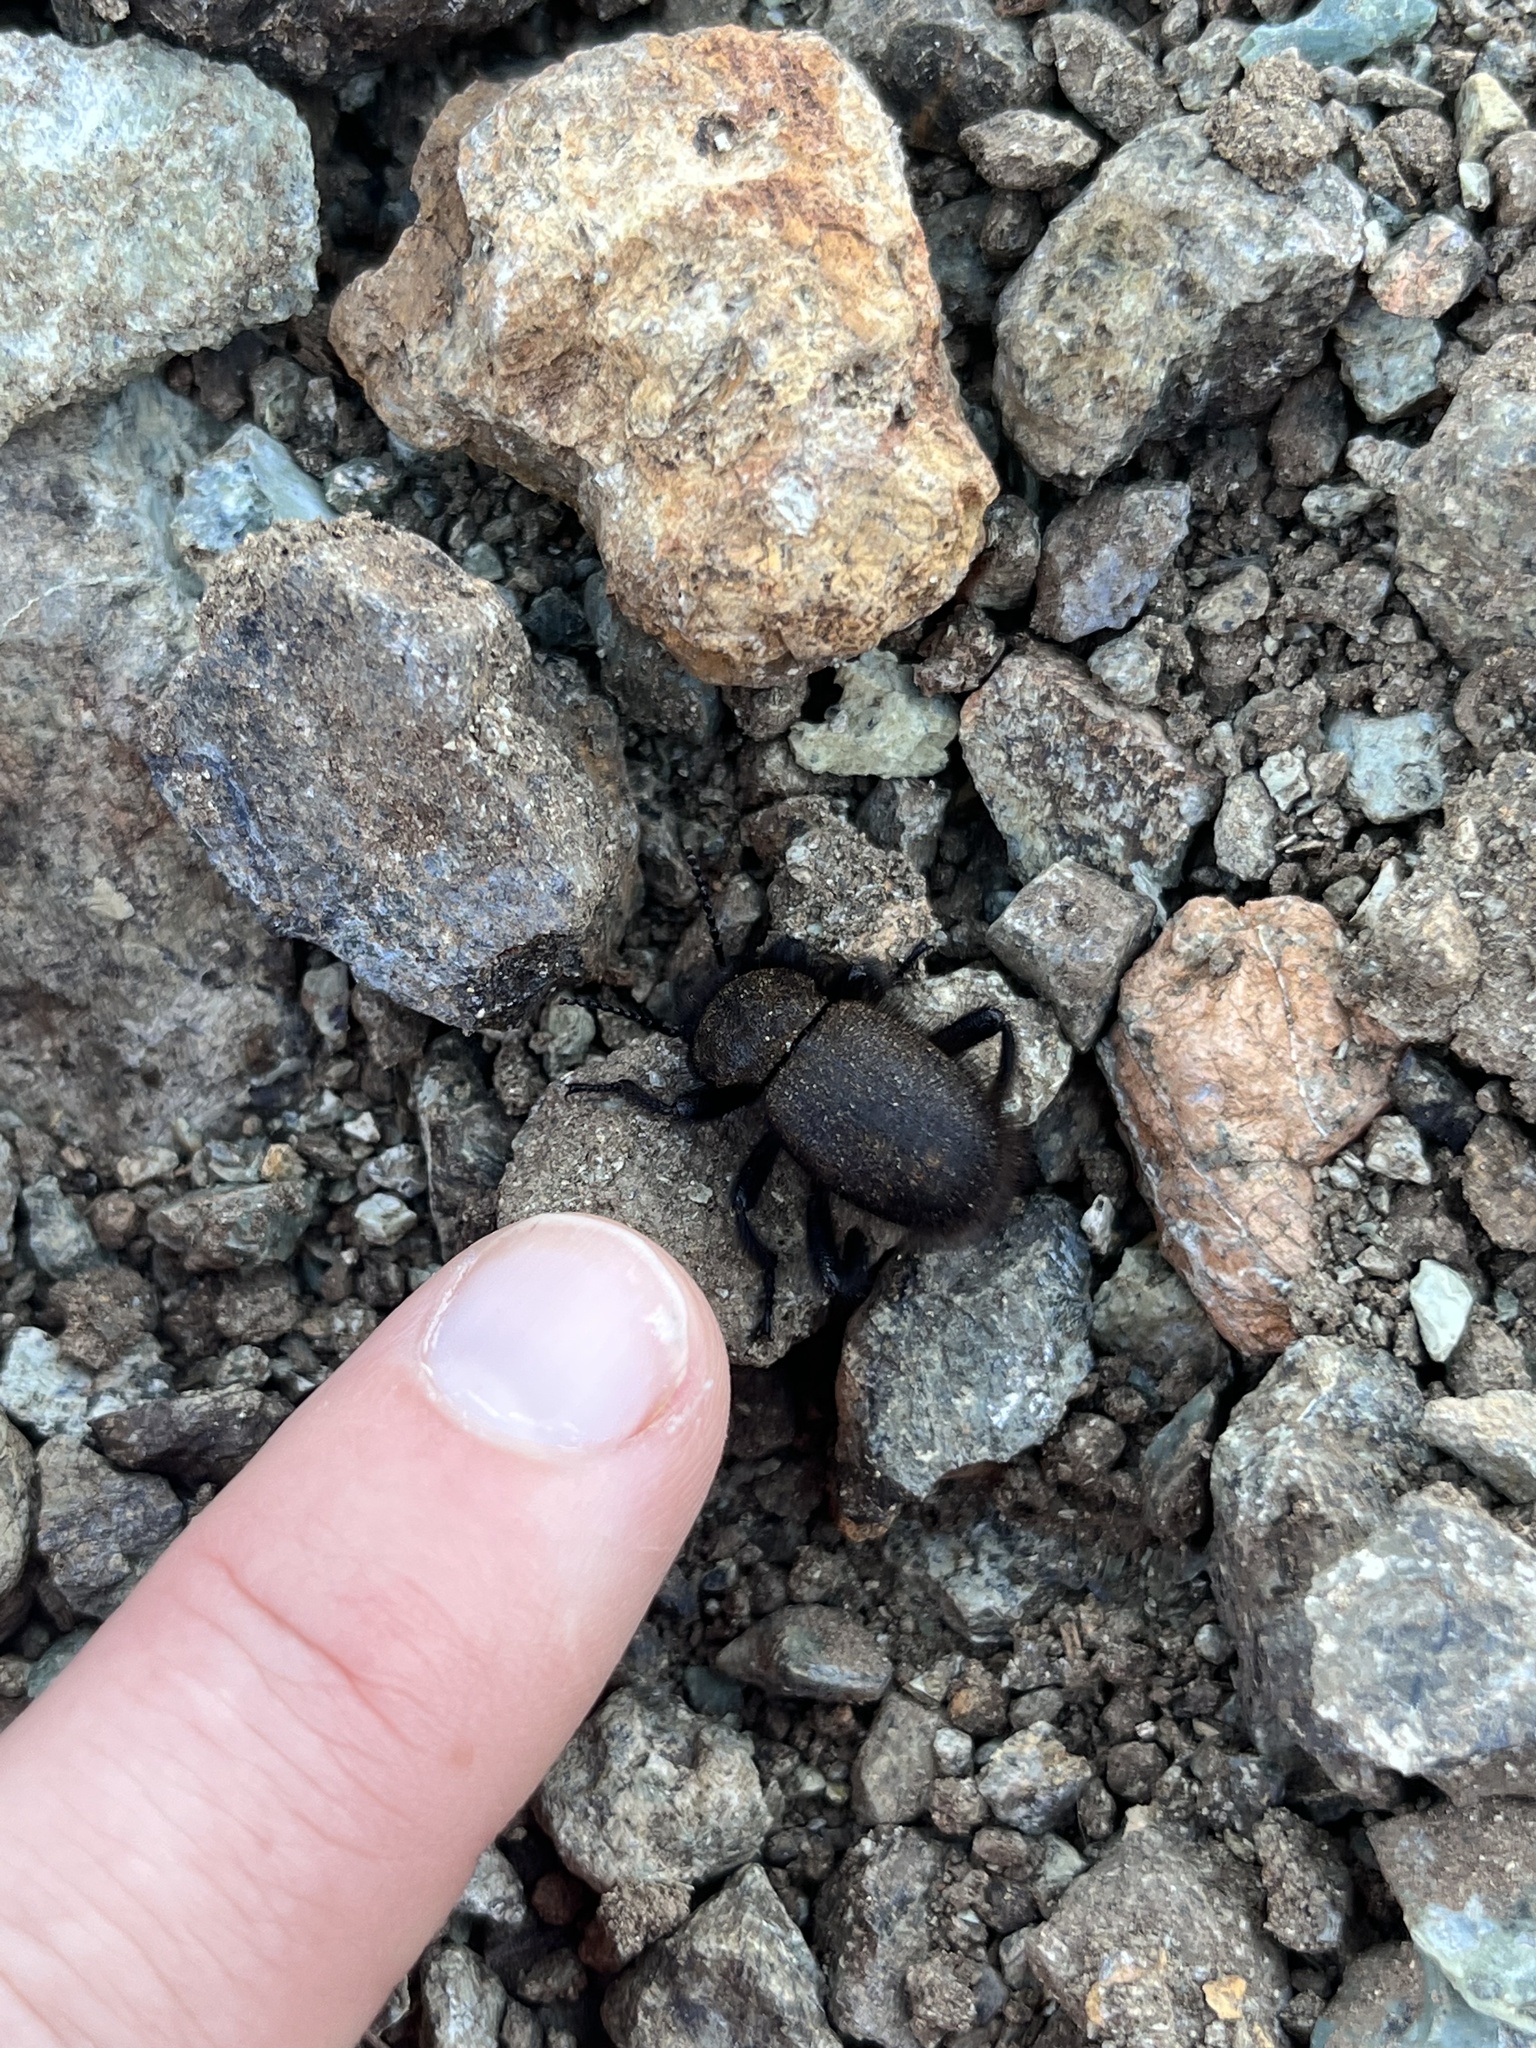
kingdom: Animalia
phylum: Arthropoda
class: Insecta
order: Coleoptera
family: Tenebrionidae
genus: Eleodes
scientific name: Eleodes osculans
